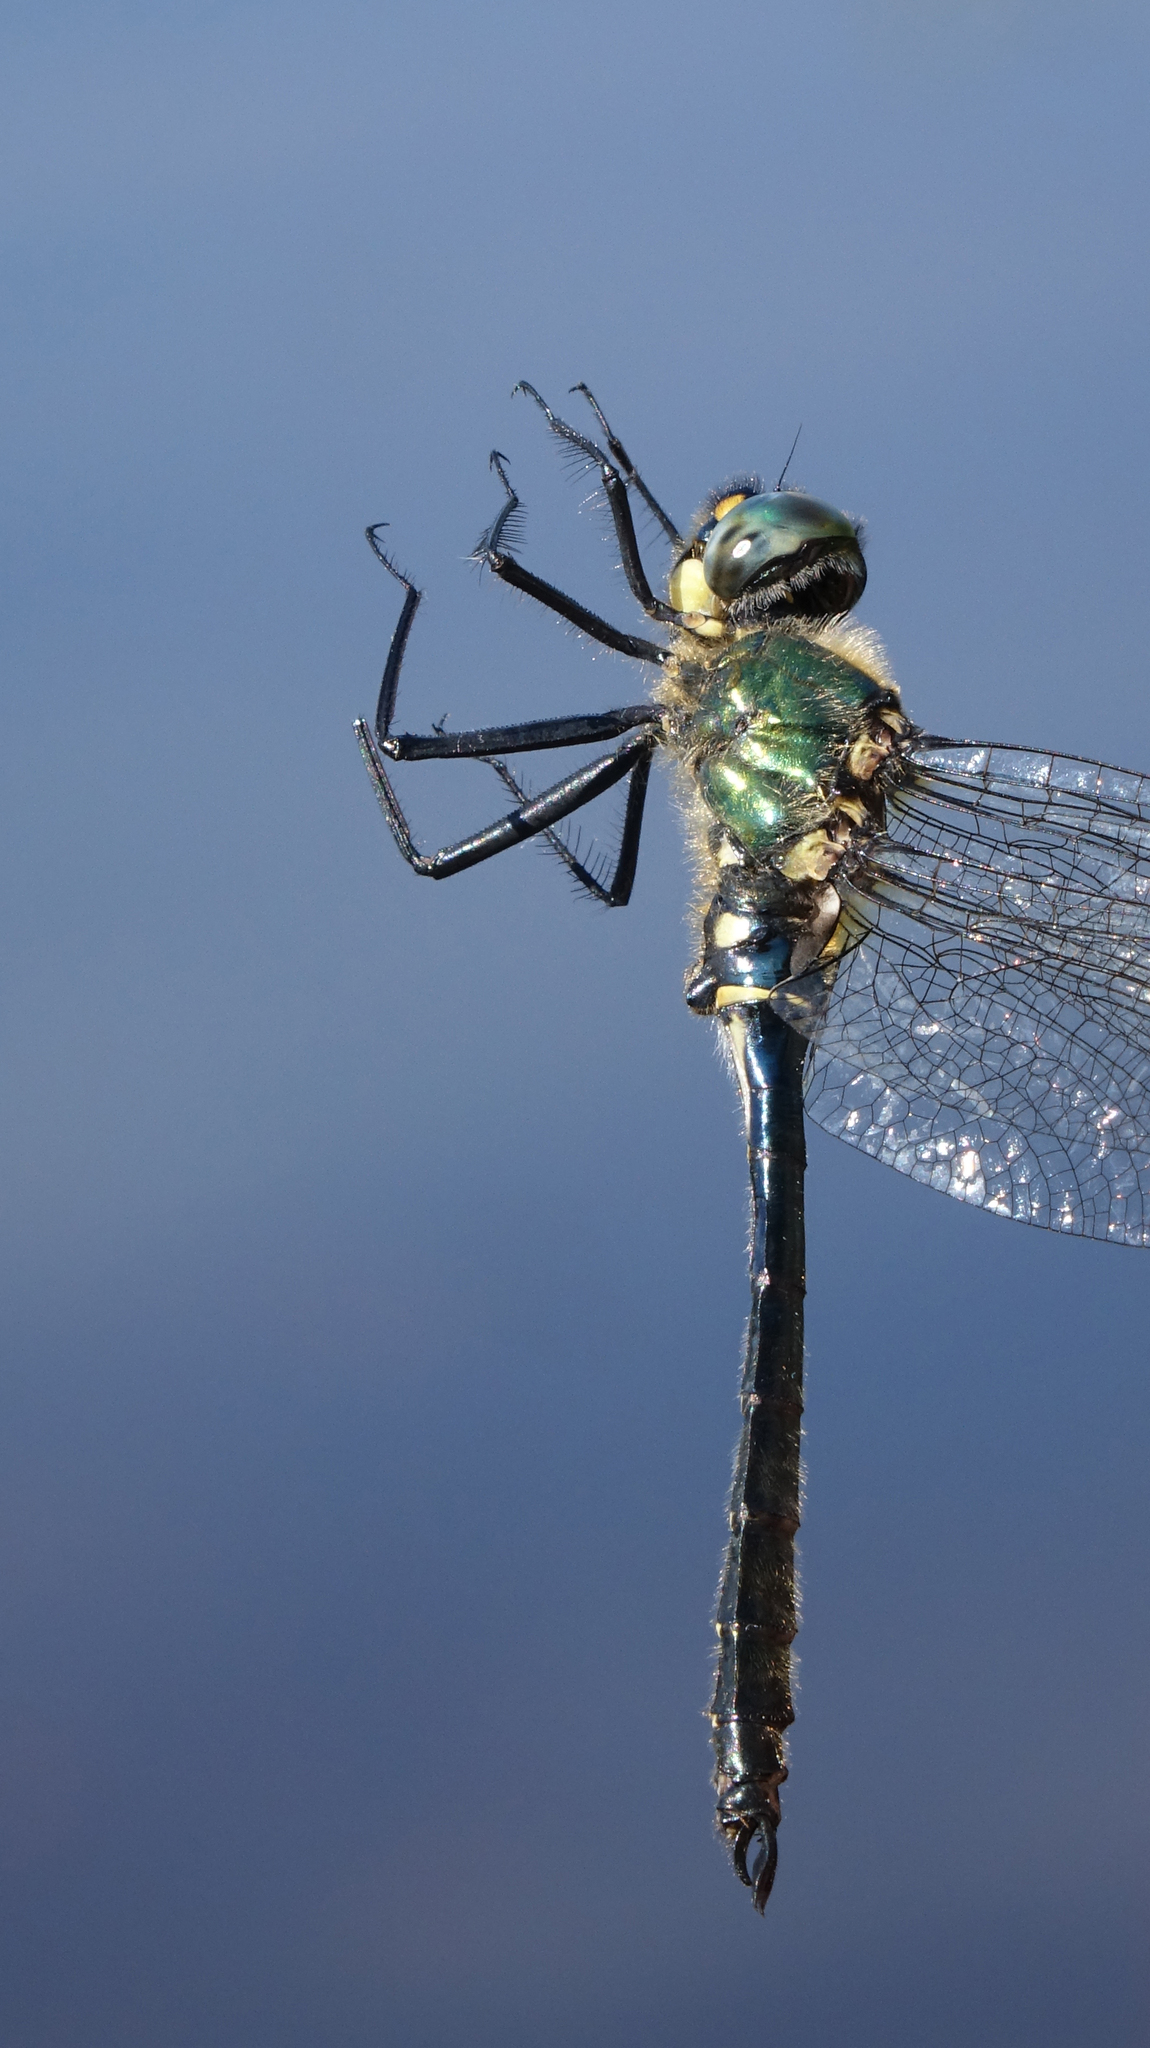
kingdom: Animalia
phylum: Arthropoda
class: Insecta
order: Odonata
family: Corduliidae
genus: Somatochlora
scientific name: Somatochlora graeseri
